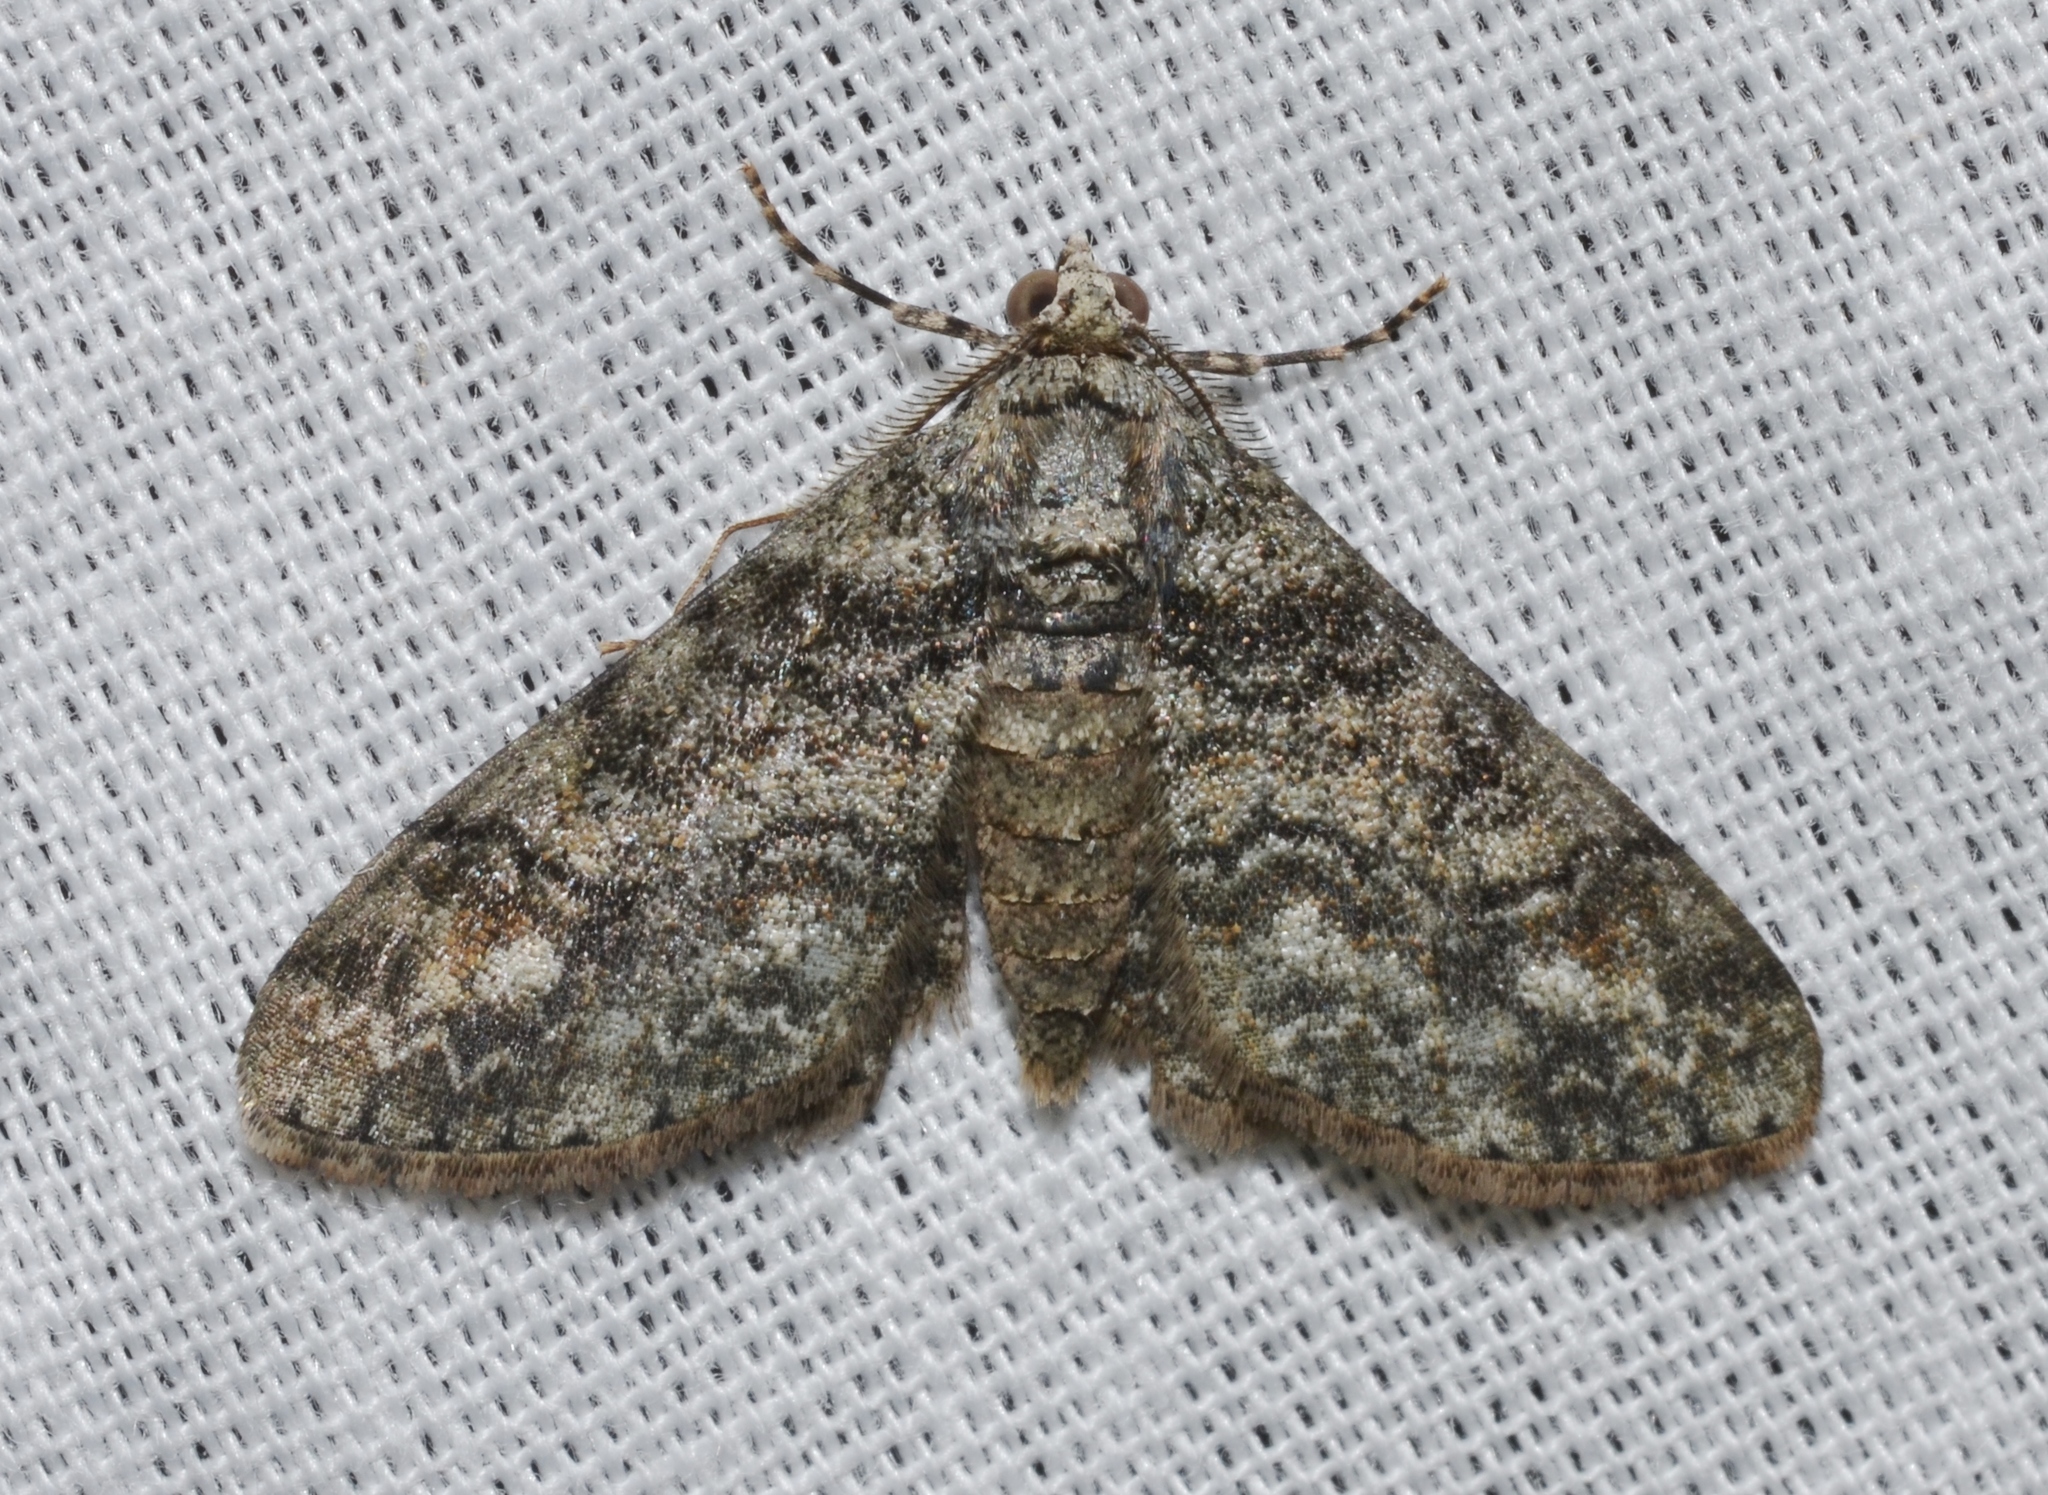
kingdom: Animalia
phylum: Arthropoda
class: Insecta
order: Lepidoptera
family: Geometridae
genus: Cleora
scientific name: Cleora sublunaria
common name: Double-lined gray
